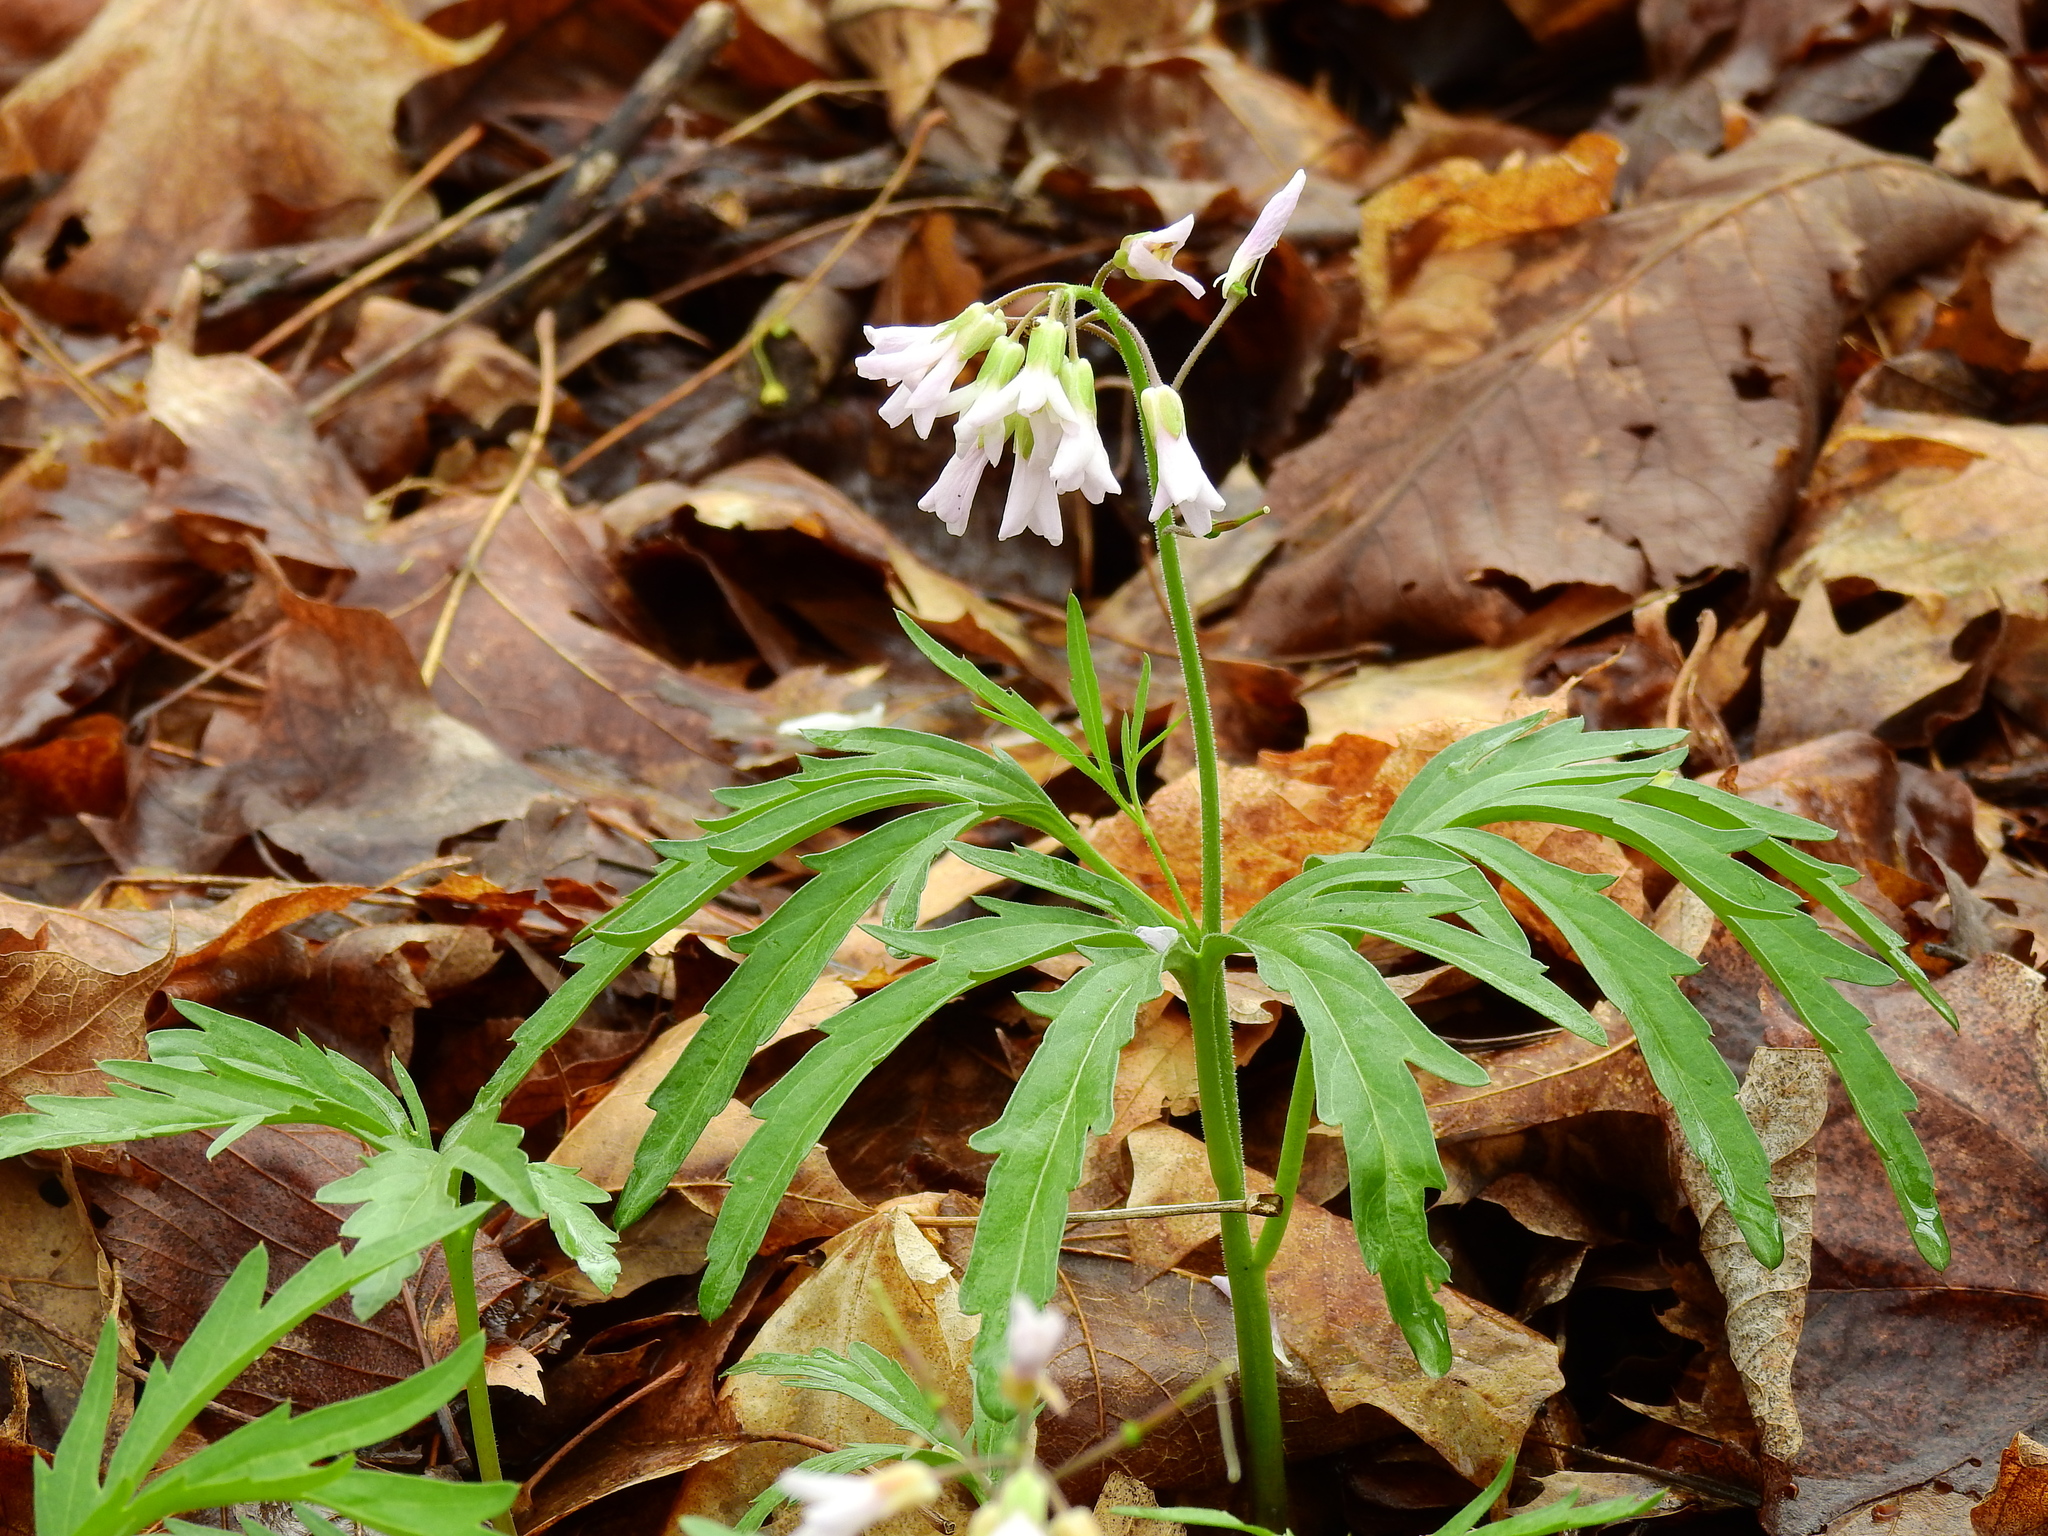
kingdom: Plantae
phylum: Tracheophyta
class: Magnoliopsida
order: Brassicales
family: Brassicaceae
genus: Cardamine
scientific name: Cardamine concatenata
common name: Cut-leaf toothcup
